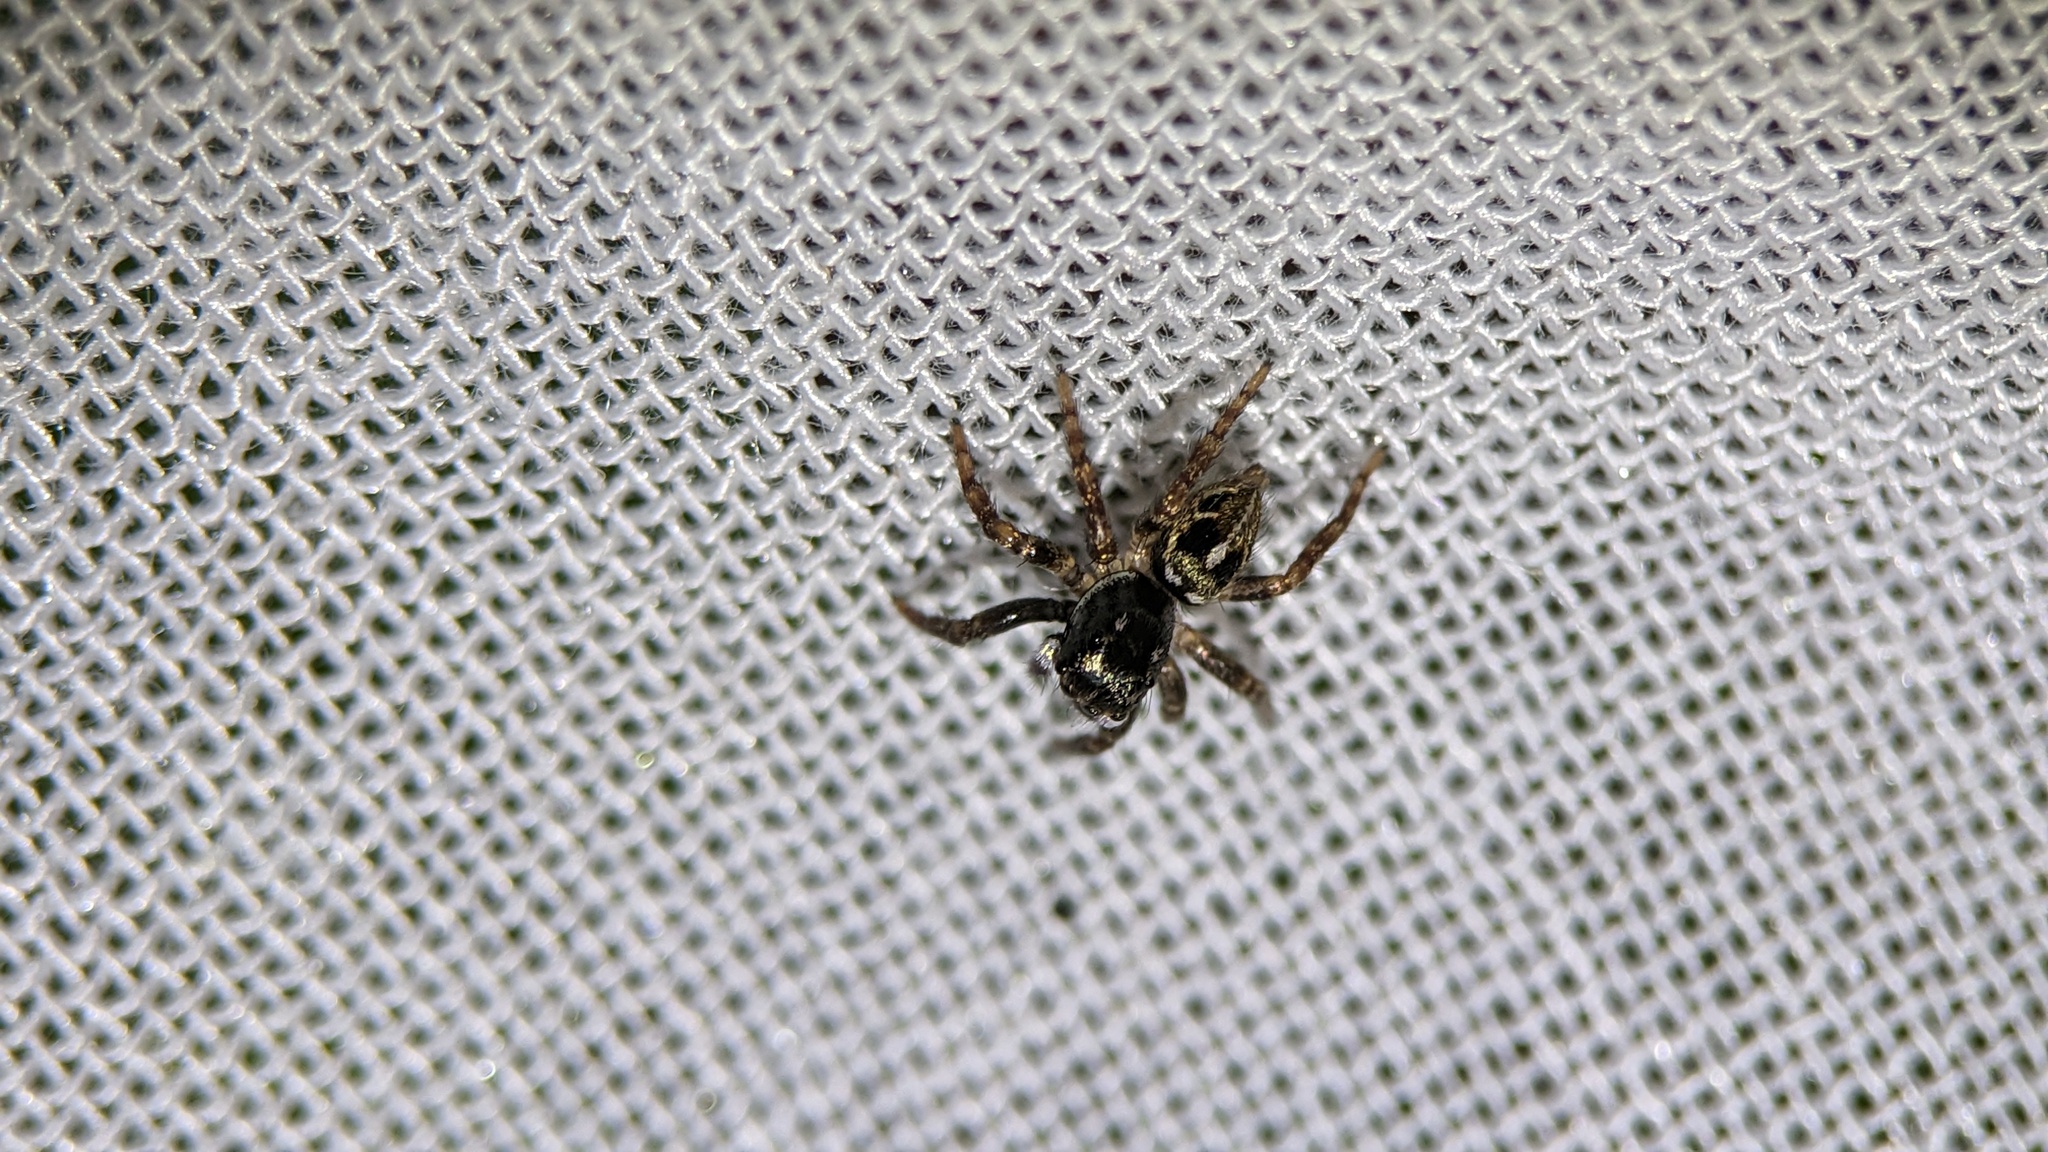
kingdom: Animalia
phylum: Arthropoda
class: Arachnida
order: Araneae
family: Salticidae
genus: Anasaitis
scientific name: Anasaitis canosa
